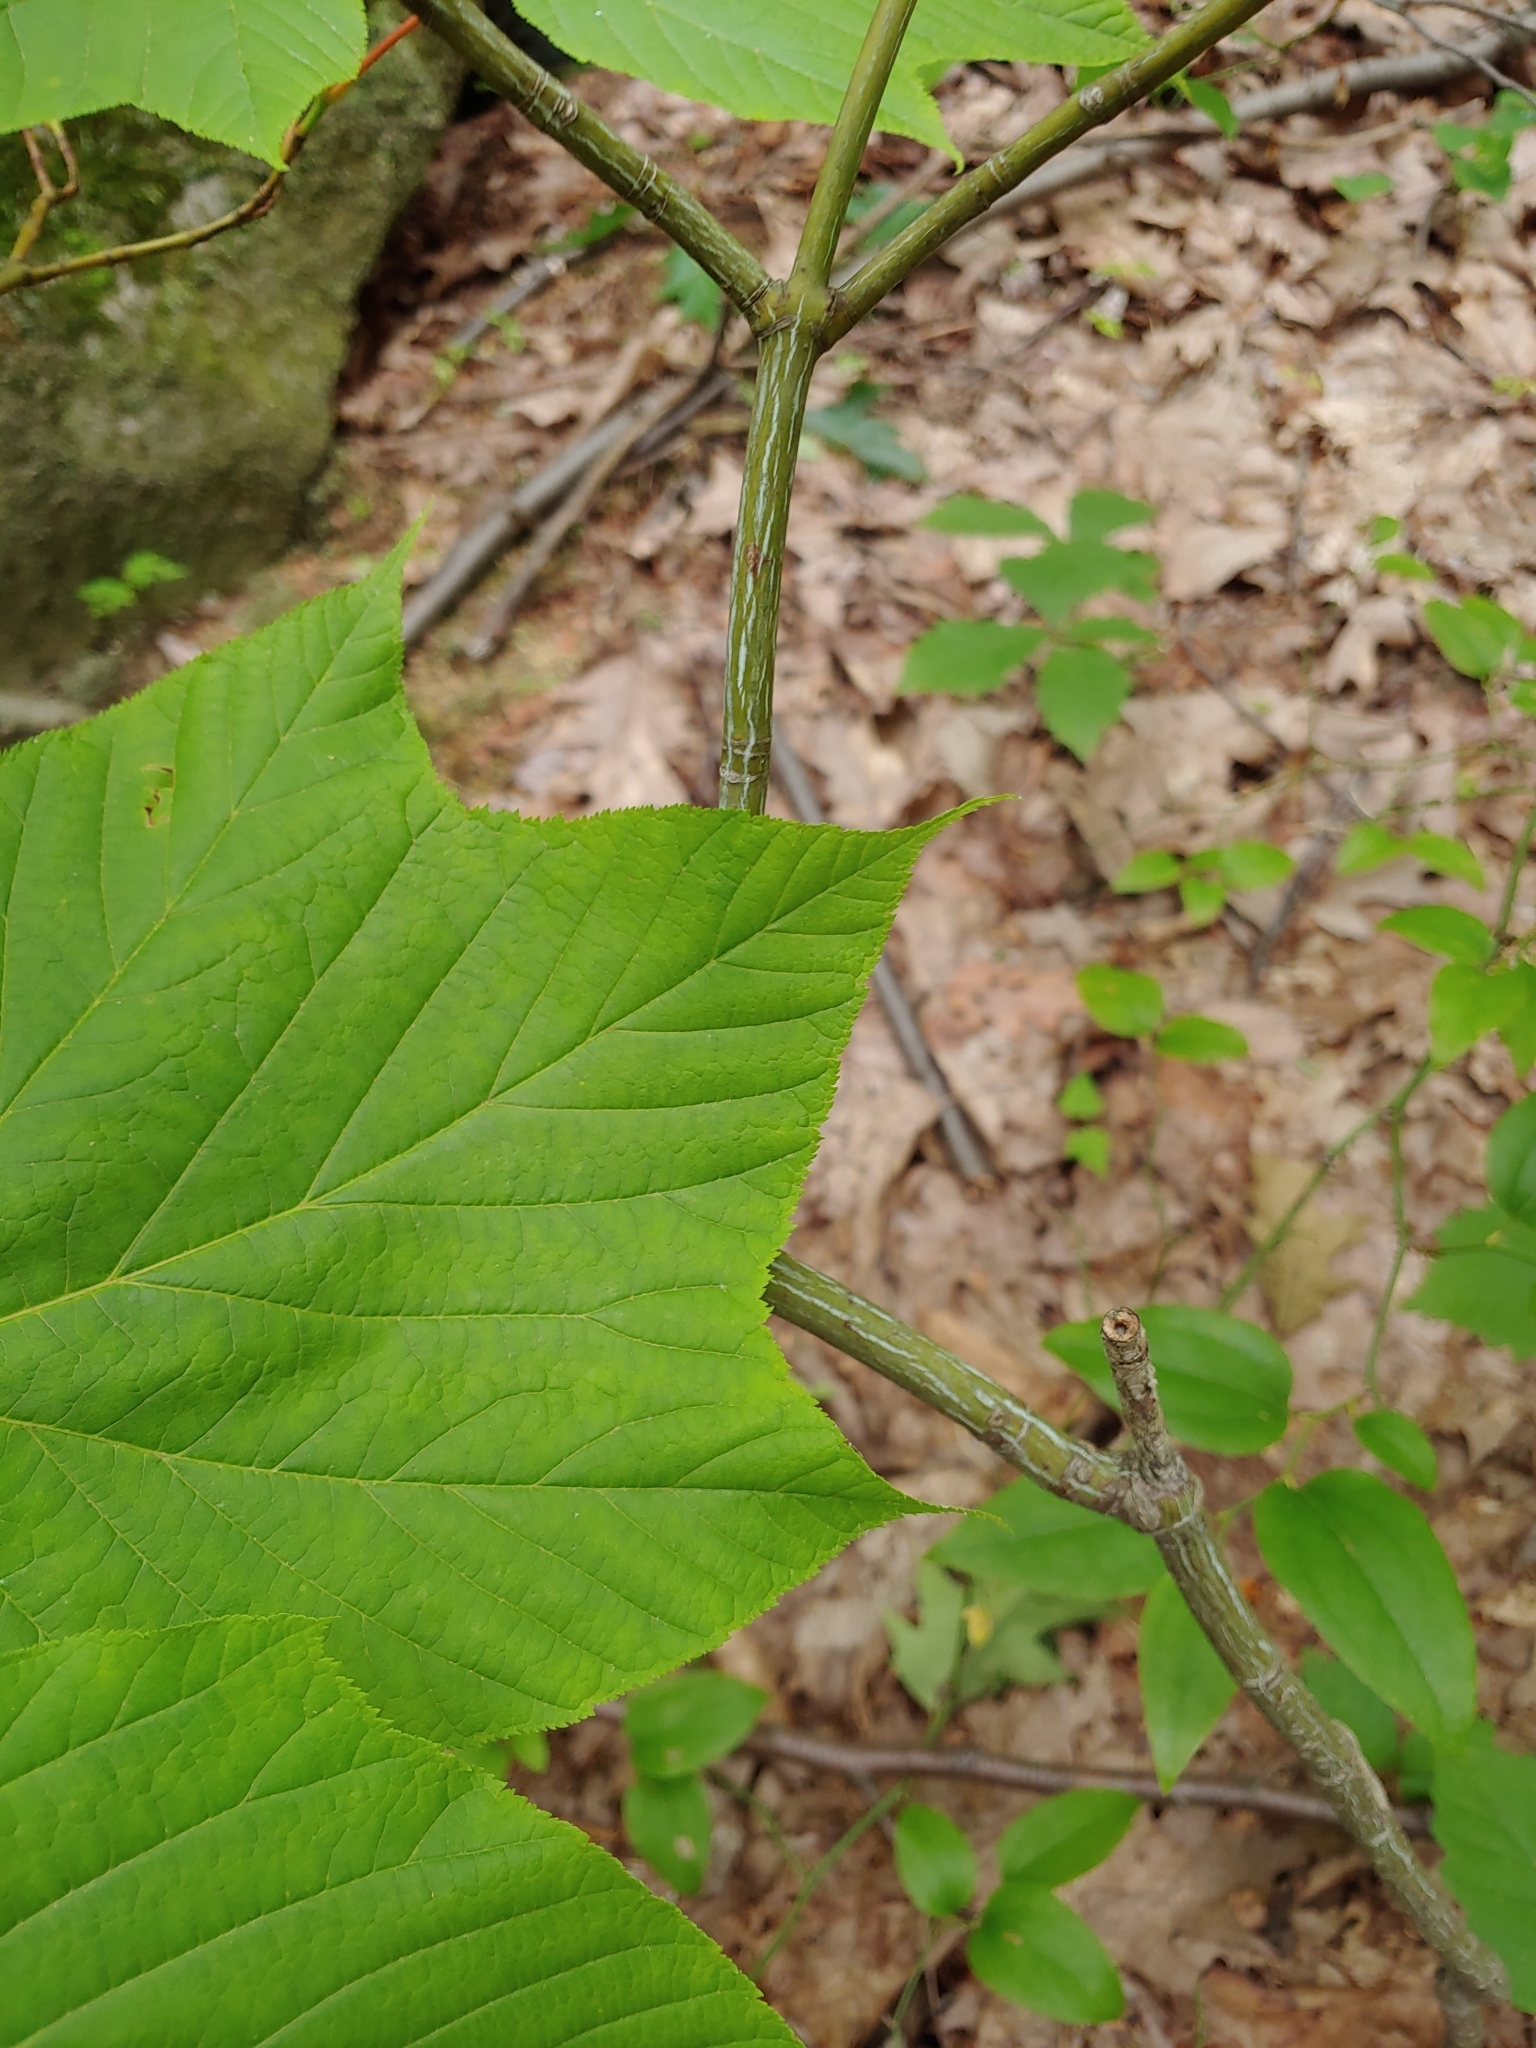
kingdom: Plantae
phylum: Tracheophyta
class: Magnoliopsida
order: Sapindales
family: Sapindaceae
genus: Acer
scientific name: Acer pensylvanicum
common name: Moosewood
